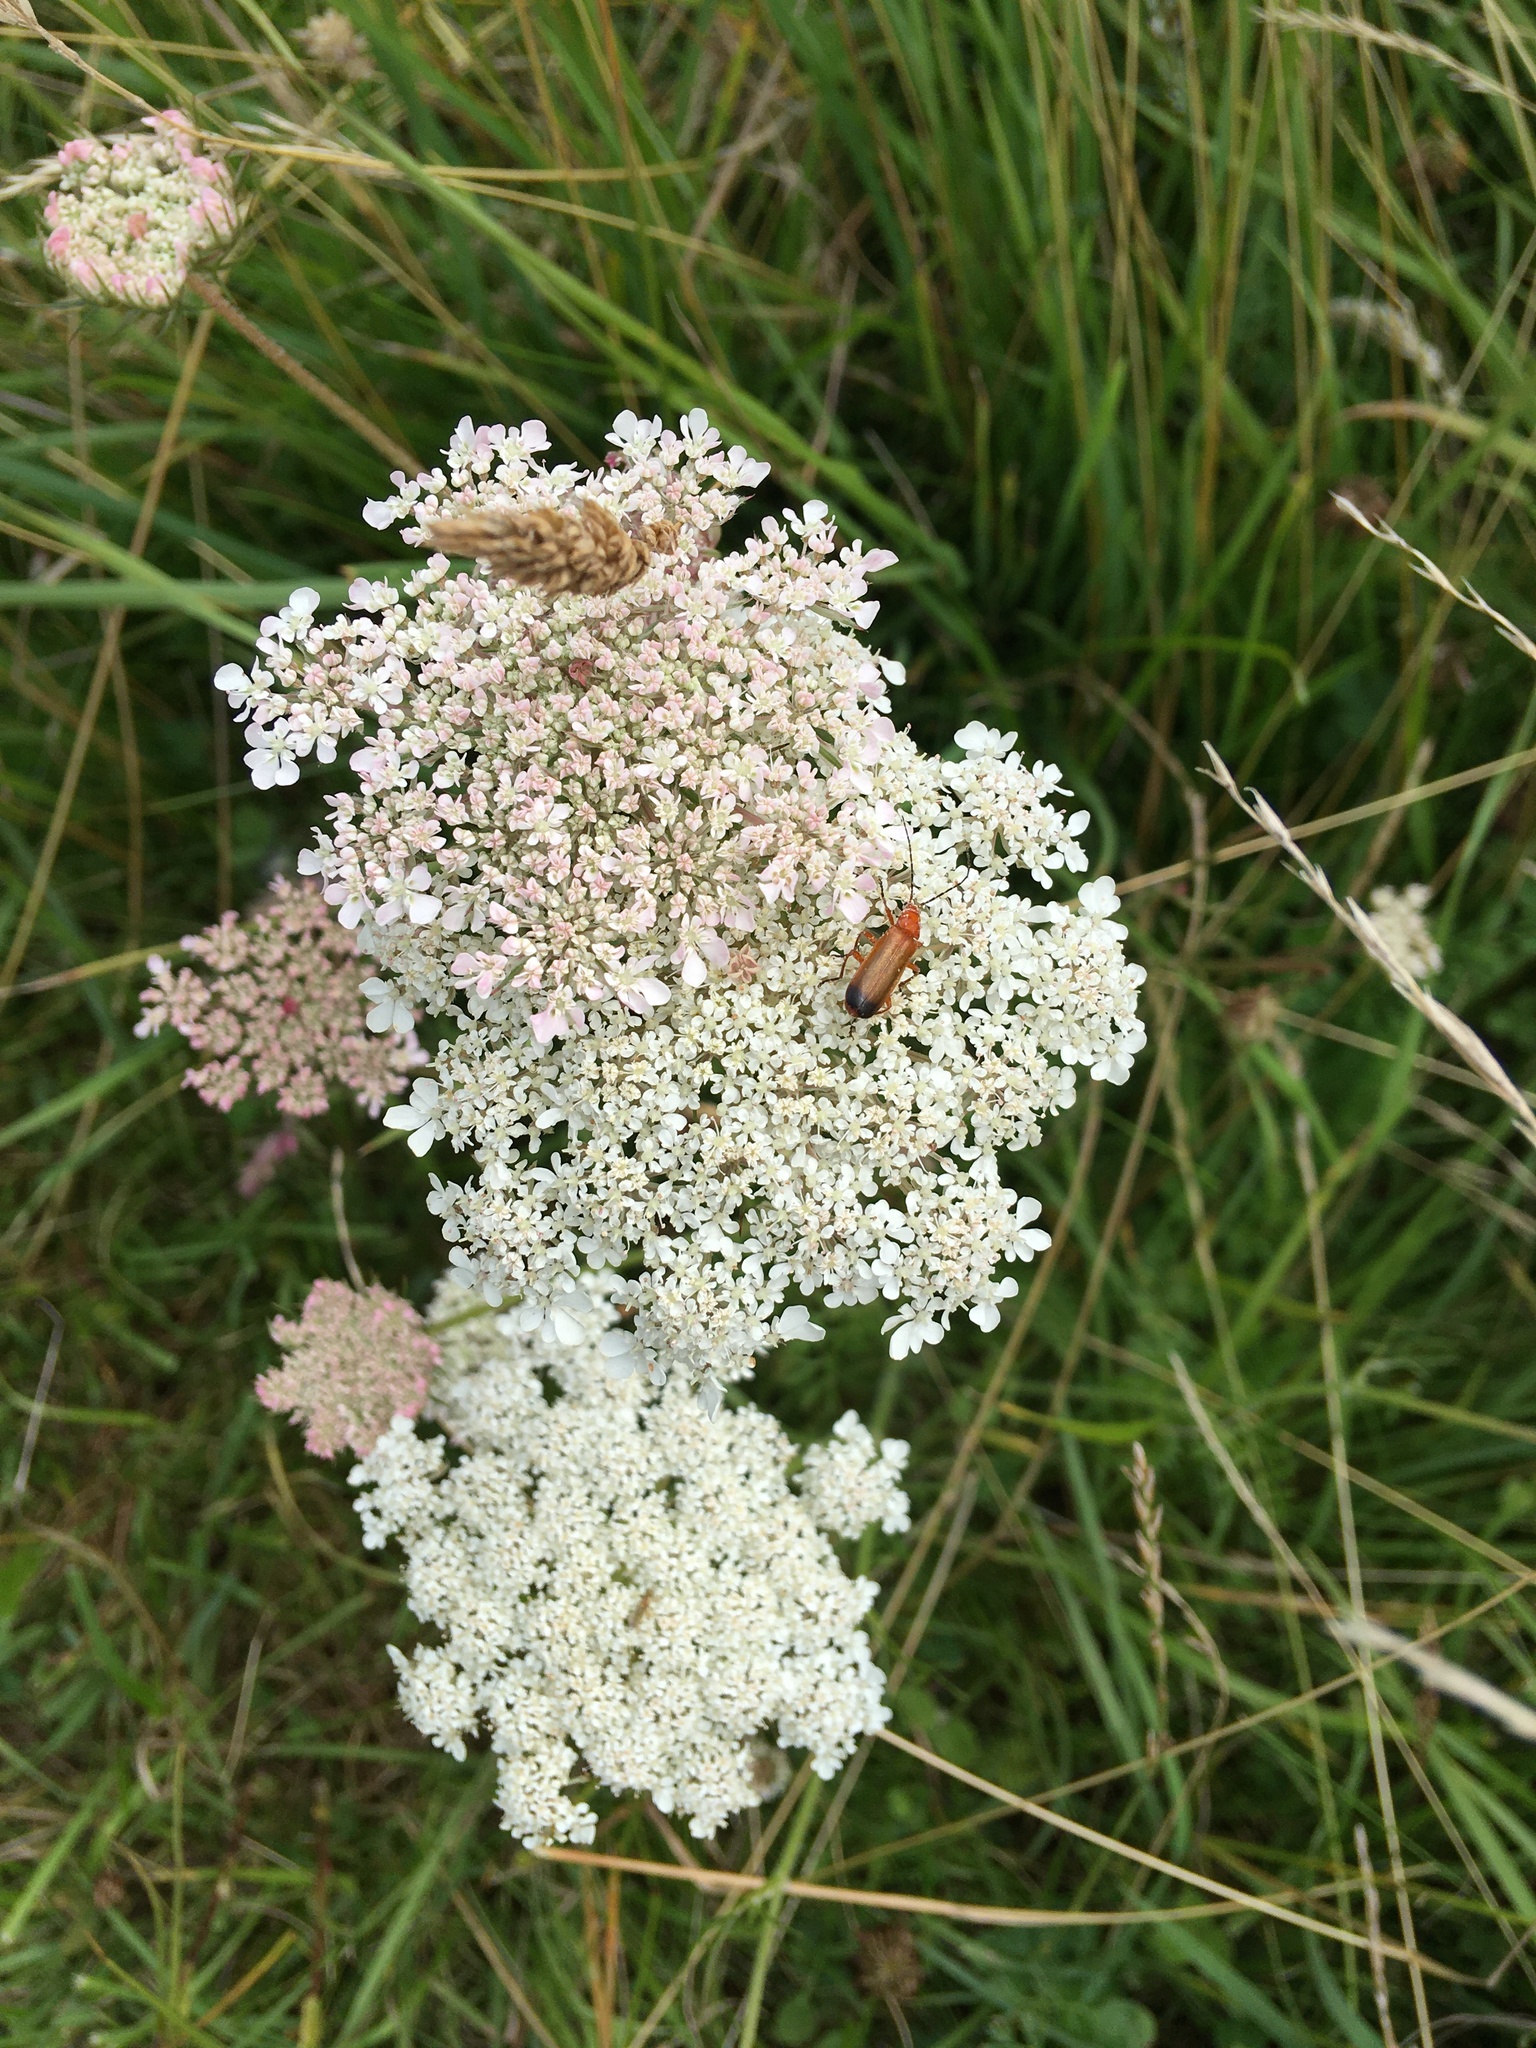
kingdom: Animalia
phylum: Arthropoda
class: Insecta
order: Coleoptera
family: Cantharidae
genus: Rhagonycha
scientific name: Rhagonycha fulva
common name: Common red soldier beetle
